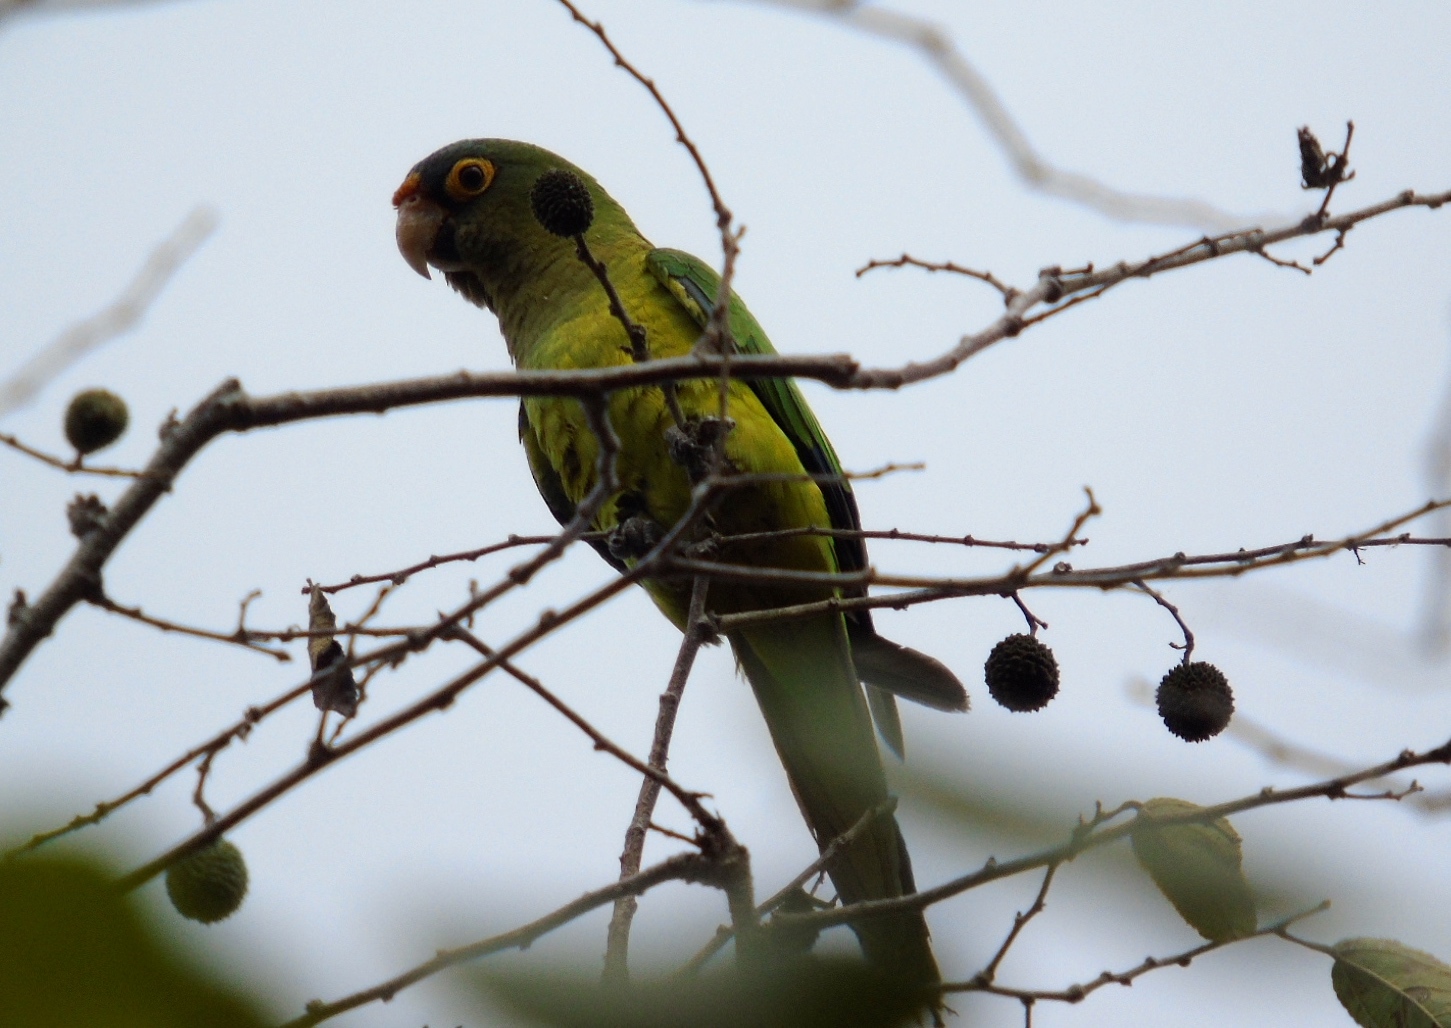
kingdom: Animalia
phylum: Chordata
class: Aves
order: Psittaciformes
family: Psittacidae
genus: Aratinga
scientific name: Aratinga canicularis
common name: Orange-fronted parakeet
